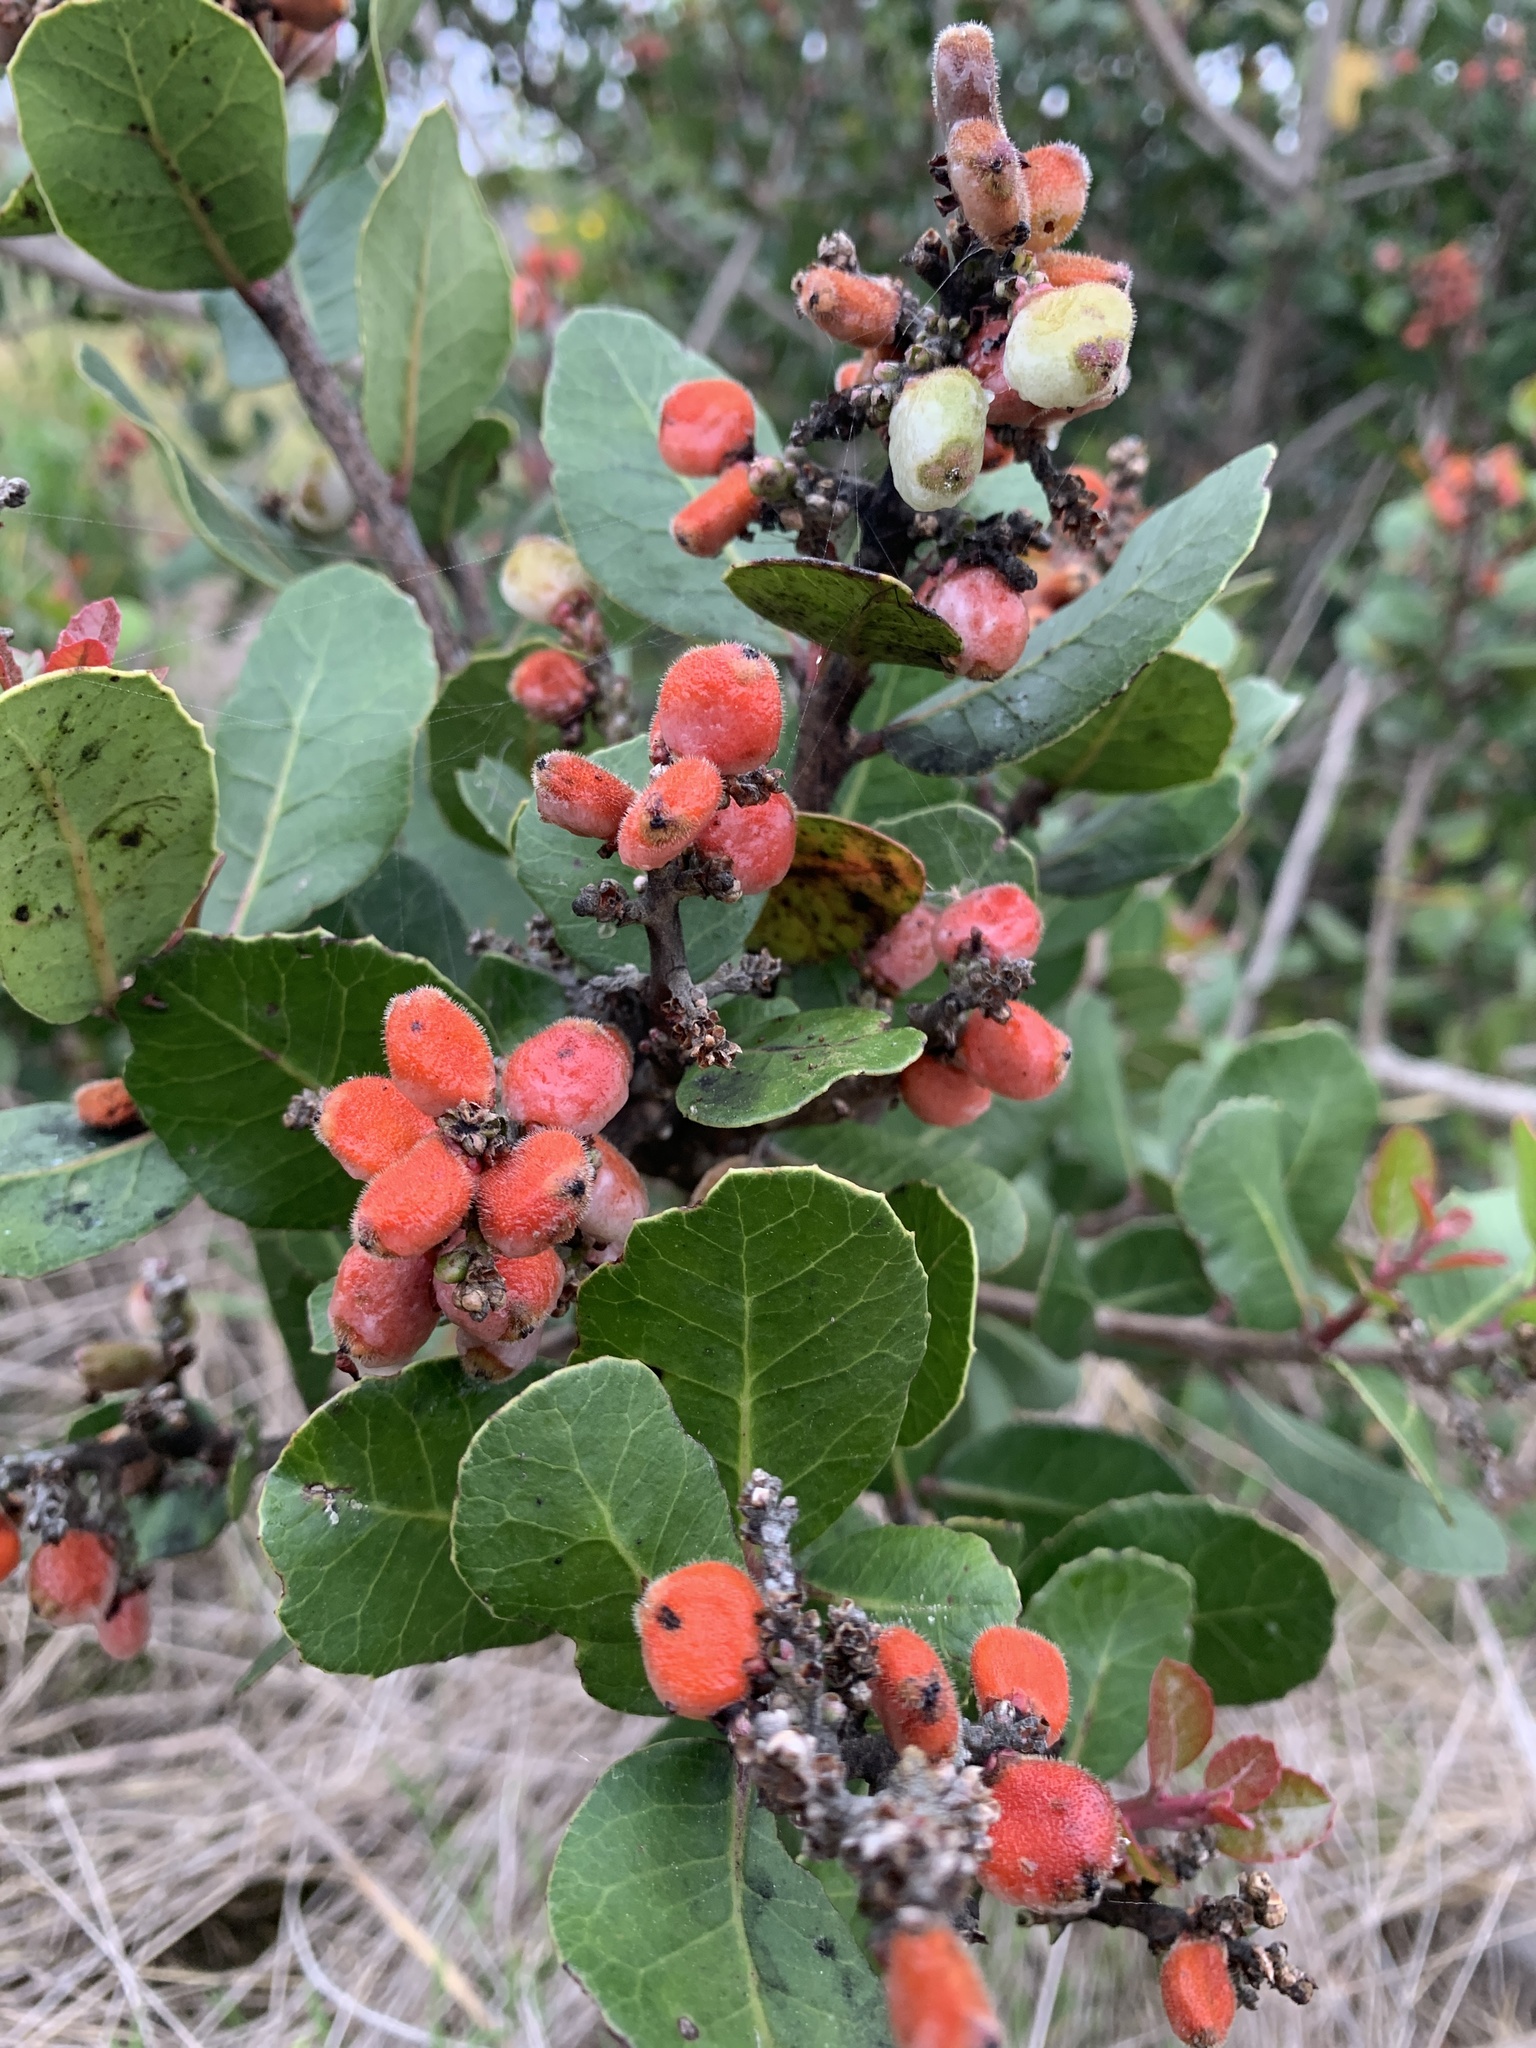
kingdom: Plantae
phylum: Tracheophyta
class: Magnoliopsida
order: Sapindales
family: Anacardiaceae
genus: Rhus
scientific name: Rhus integrifolia
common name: Lemonade sumac
